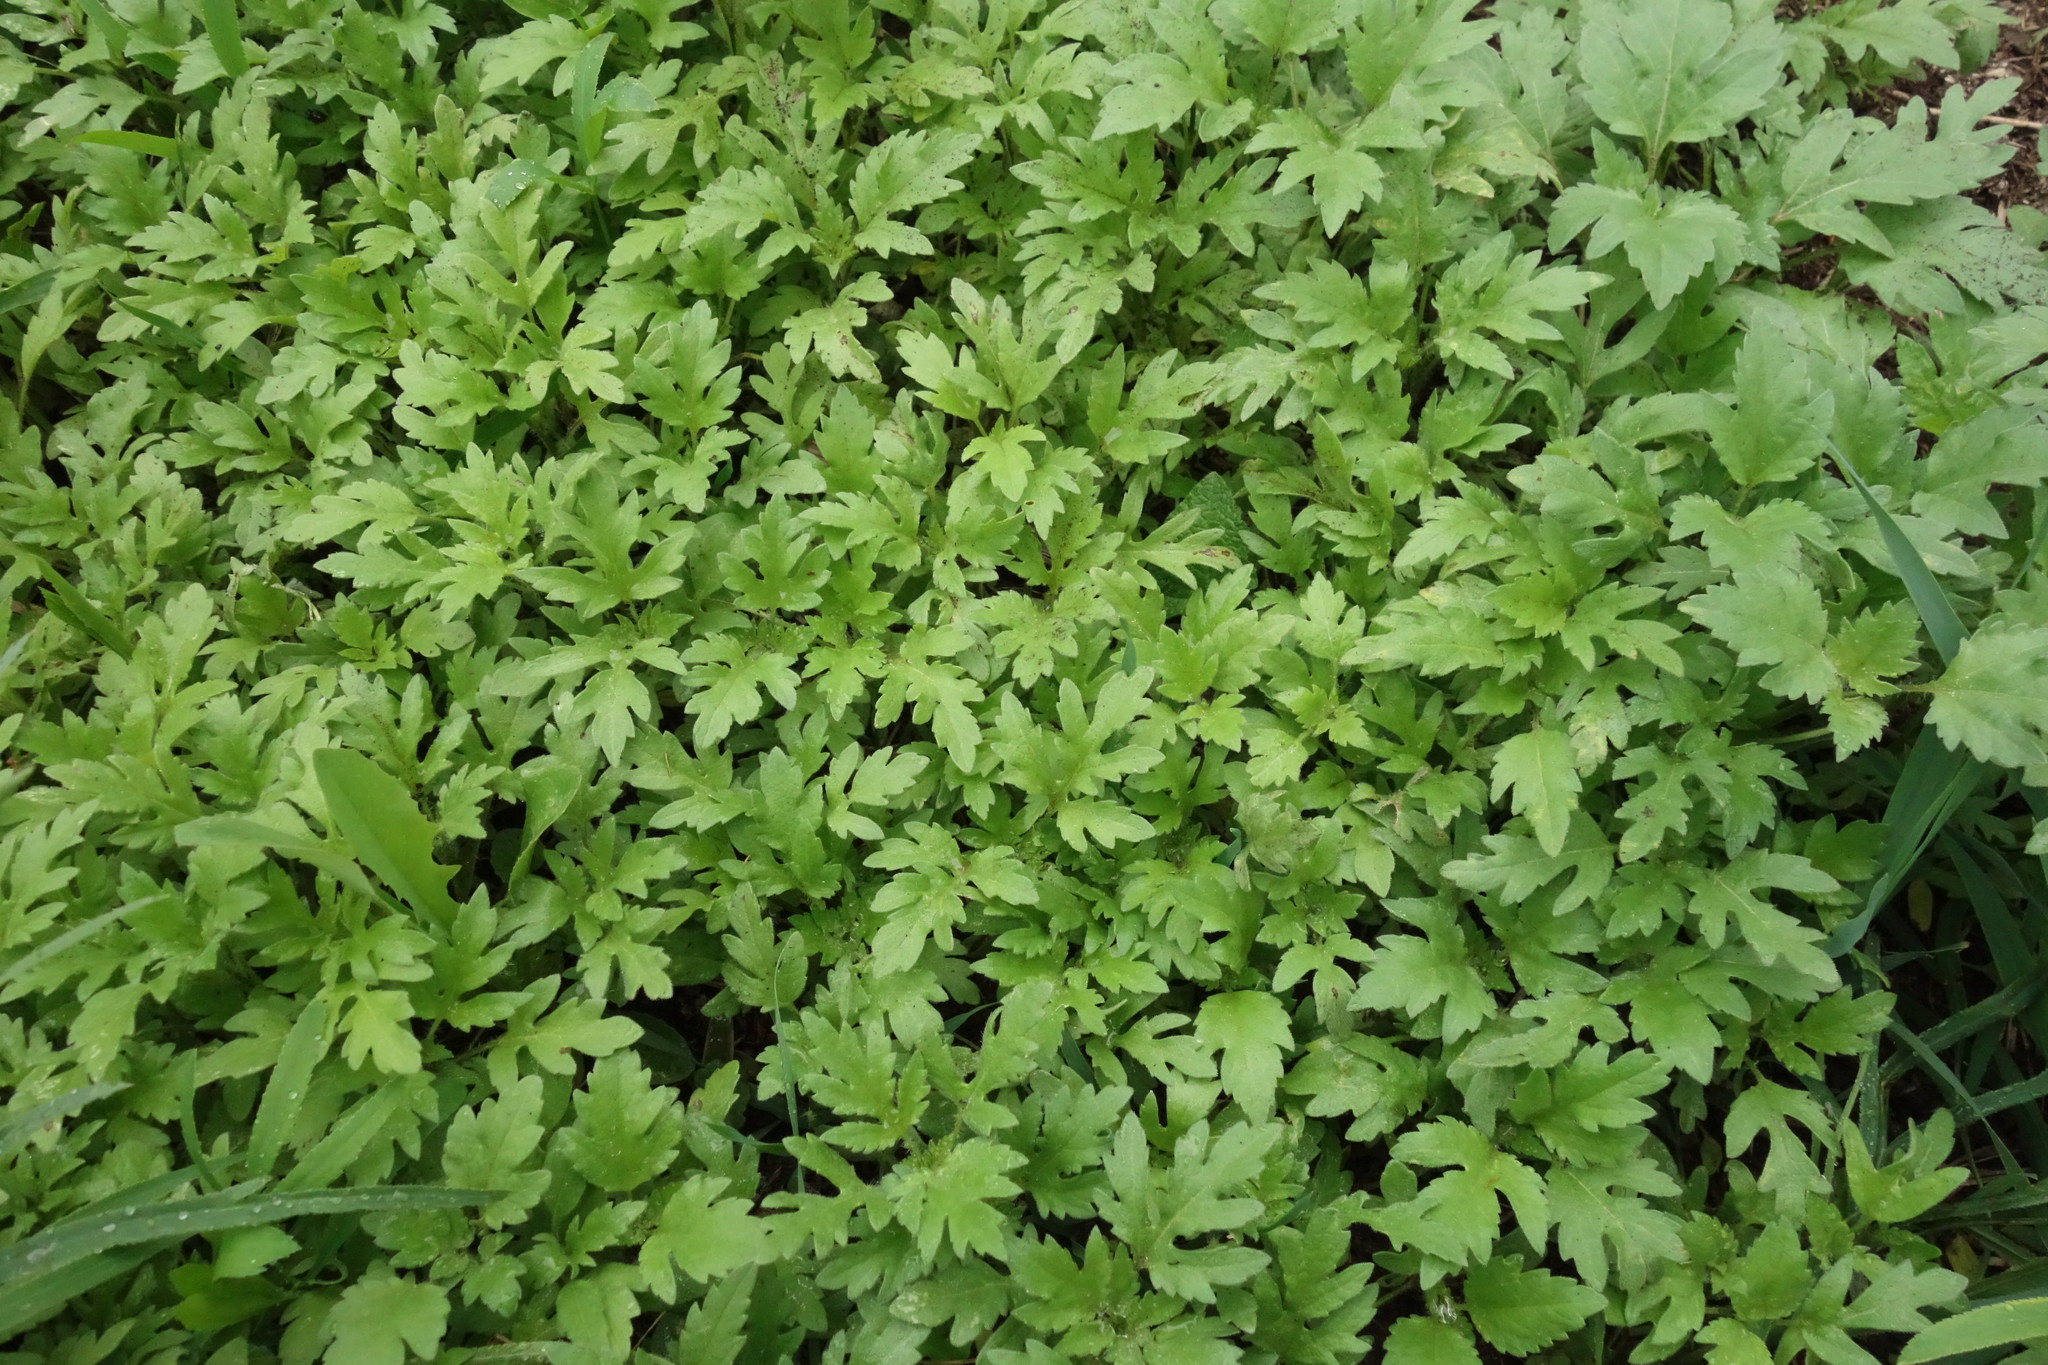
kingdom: Plantae
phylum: Tracheophyta
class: Magnoliopsida
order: Asterales
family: Asteraceae
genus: Cyclachaena
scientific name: Cyclachaena xanthiifolia
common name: Giant sumpweed
